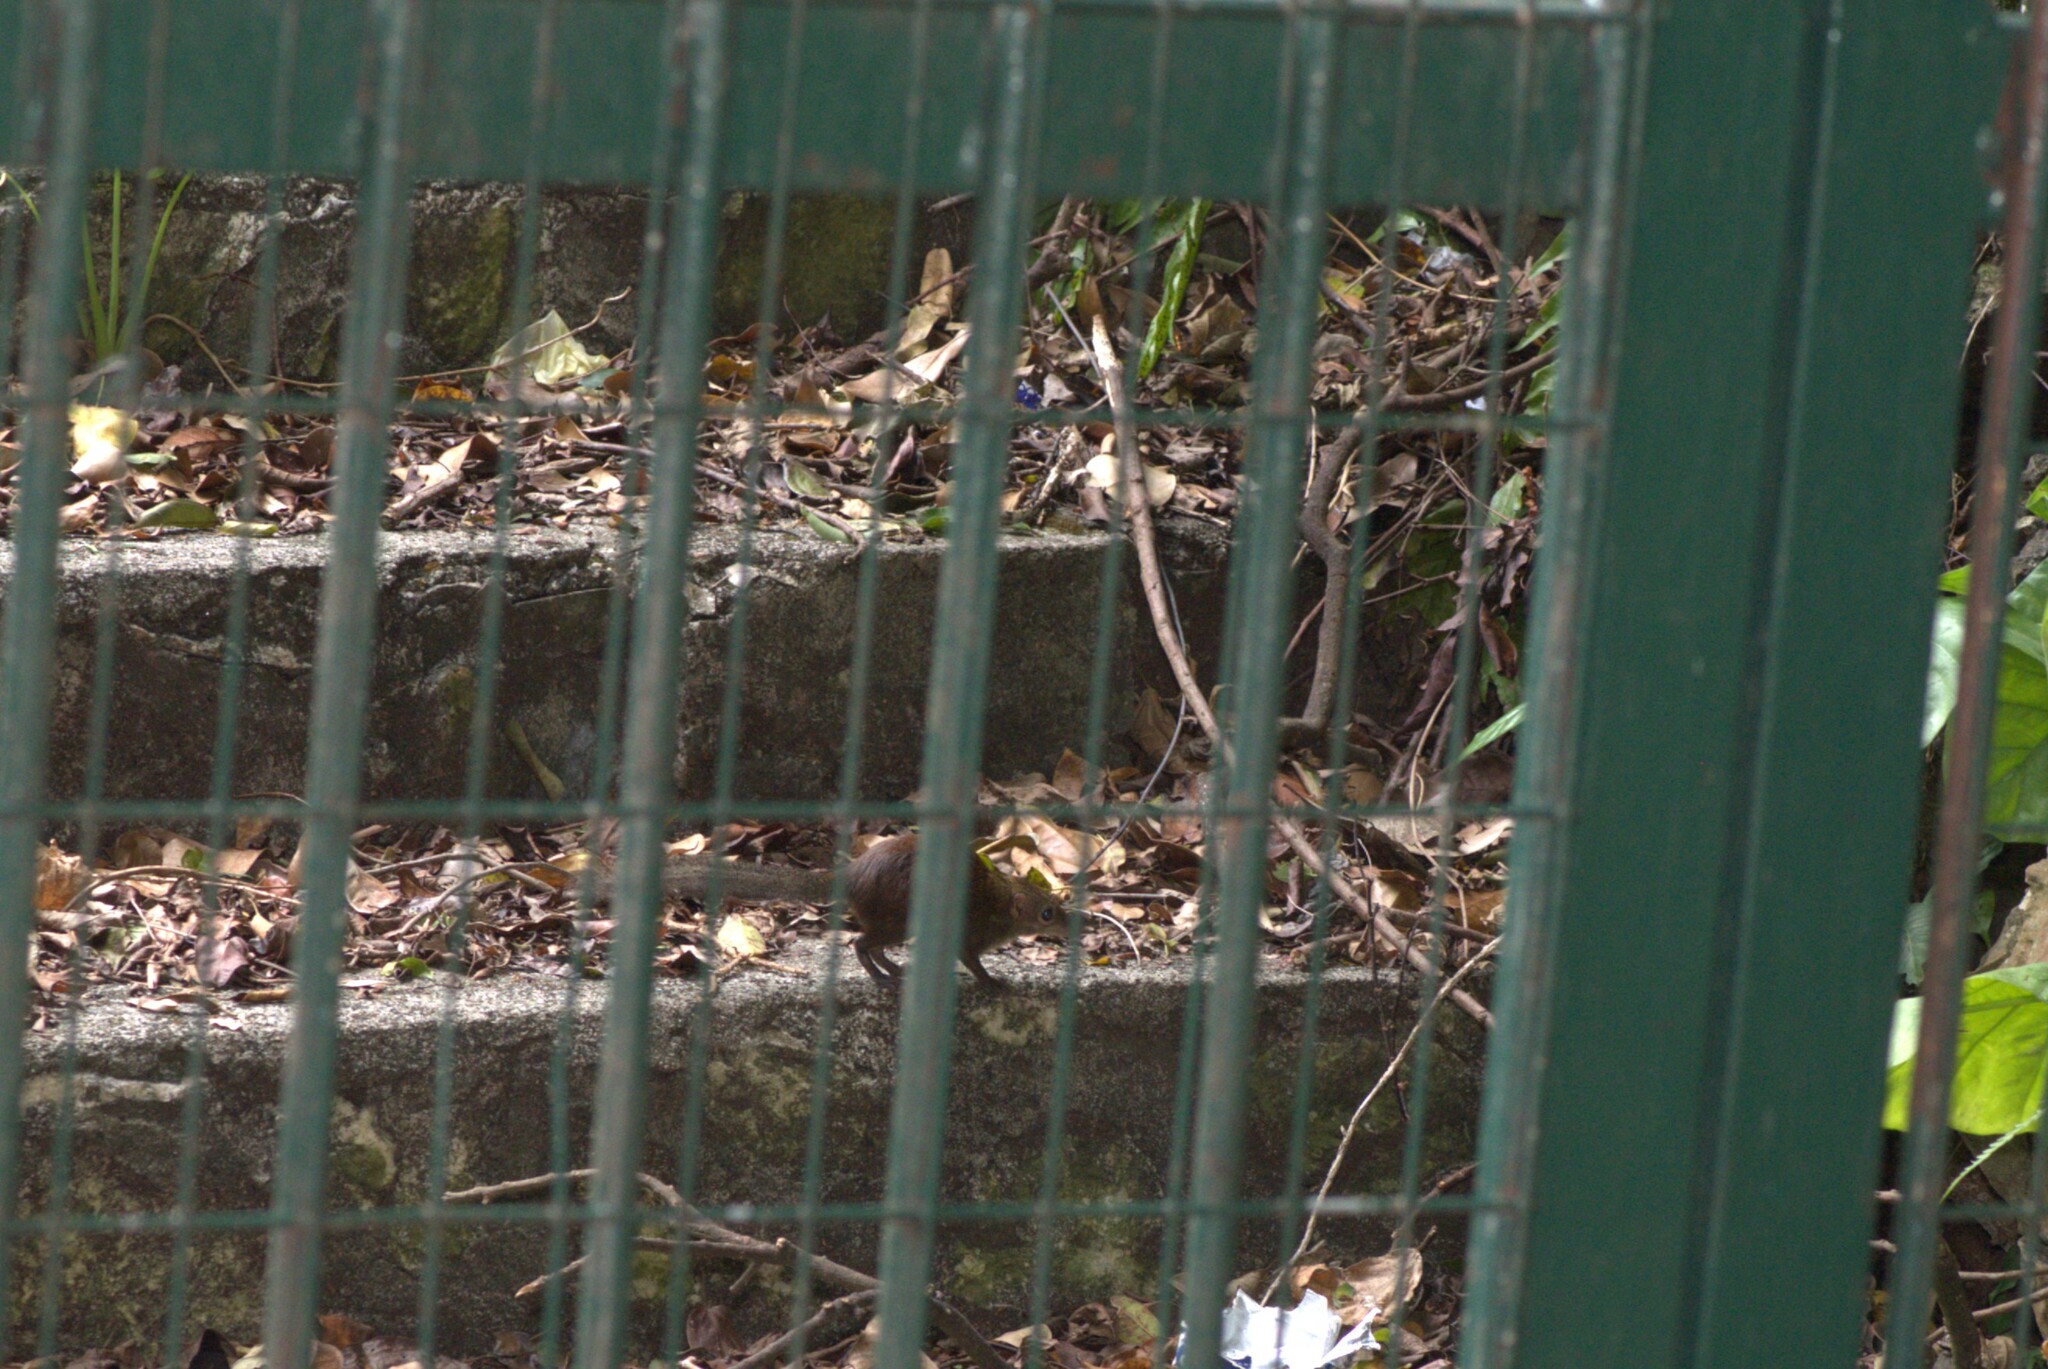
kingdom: Animalia
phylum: Chordata
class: Mammalia
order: Scandentia
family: Tupaiidae
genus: Tupaia
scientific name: Tupaia glis
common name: Common treeshrew
